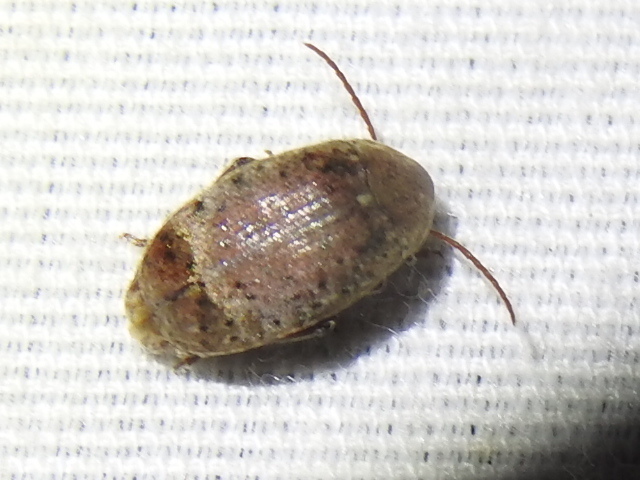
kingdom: Animalia
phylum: Arthropoda
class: Insecta
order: Coleoptera
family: Chrysomelidae
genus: Amblycerus
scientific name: Amblycerus robiniae
